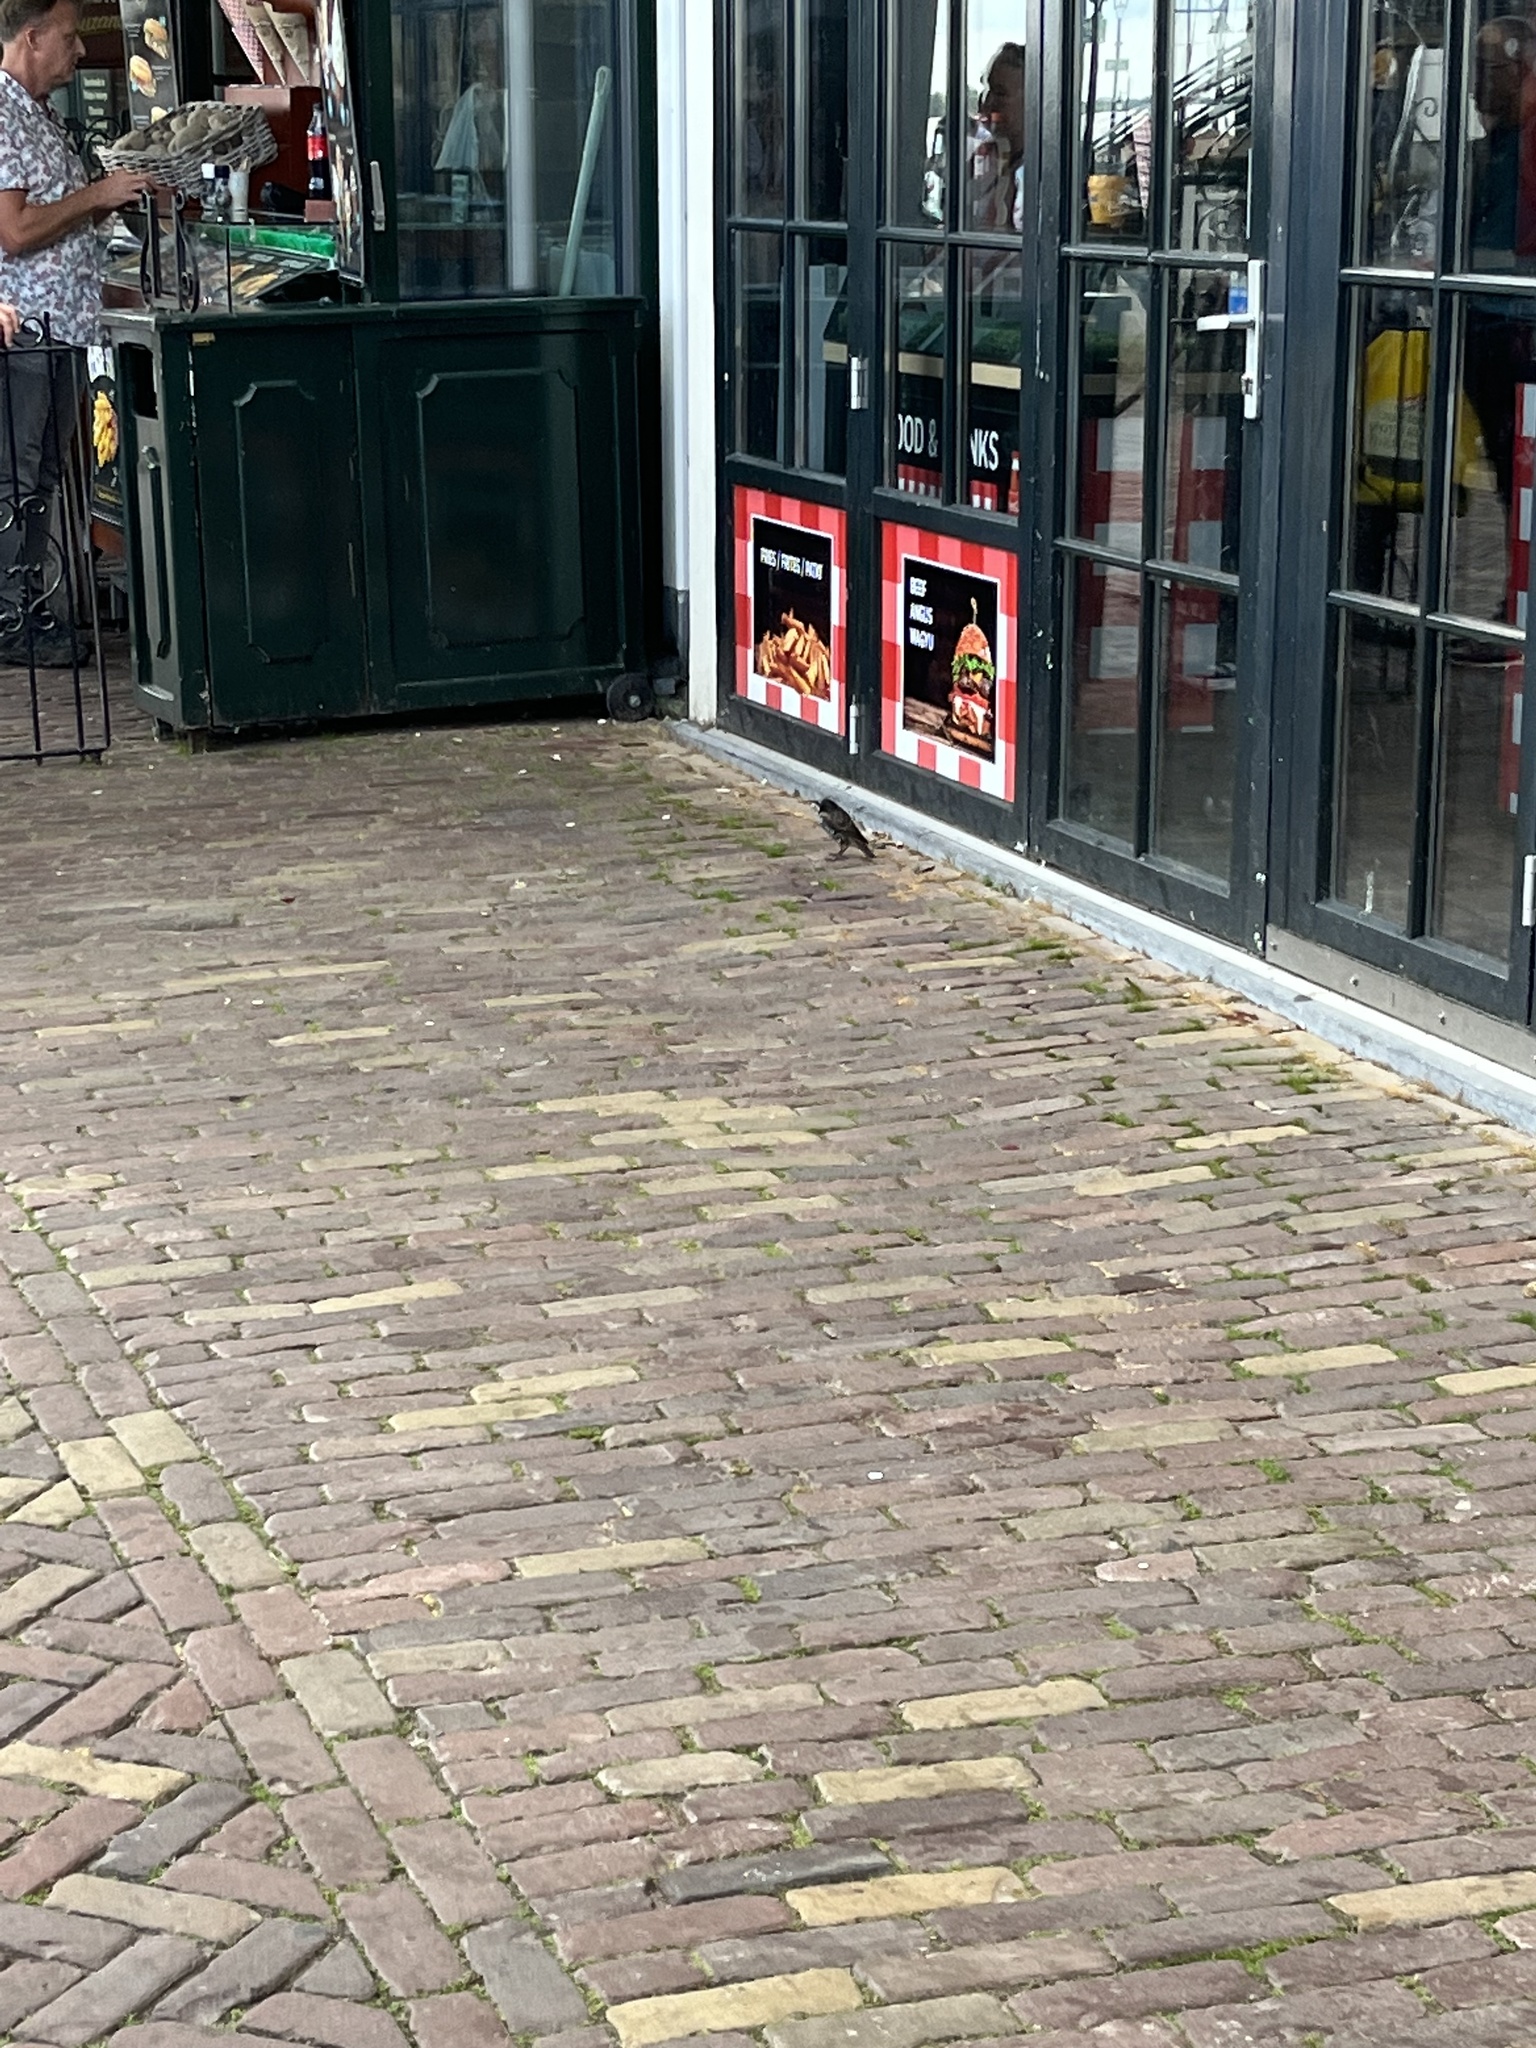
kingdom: Animalia
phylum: Chordata
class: Aves
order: Passeriformes
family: Sturnidae
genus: Sturnus
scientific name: Sturnus vulgaris
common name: Common starling
